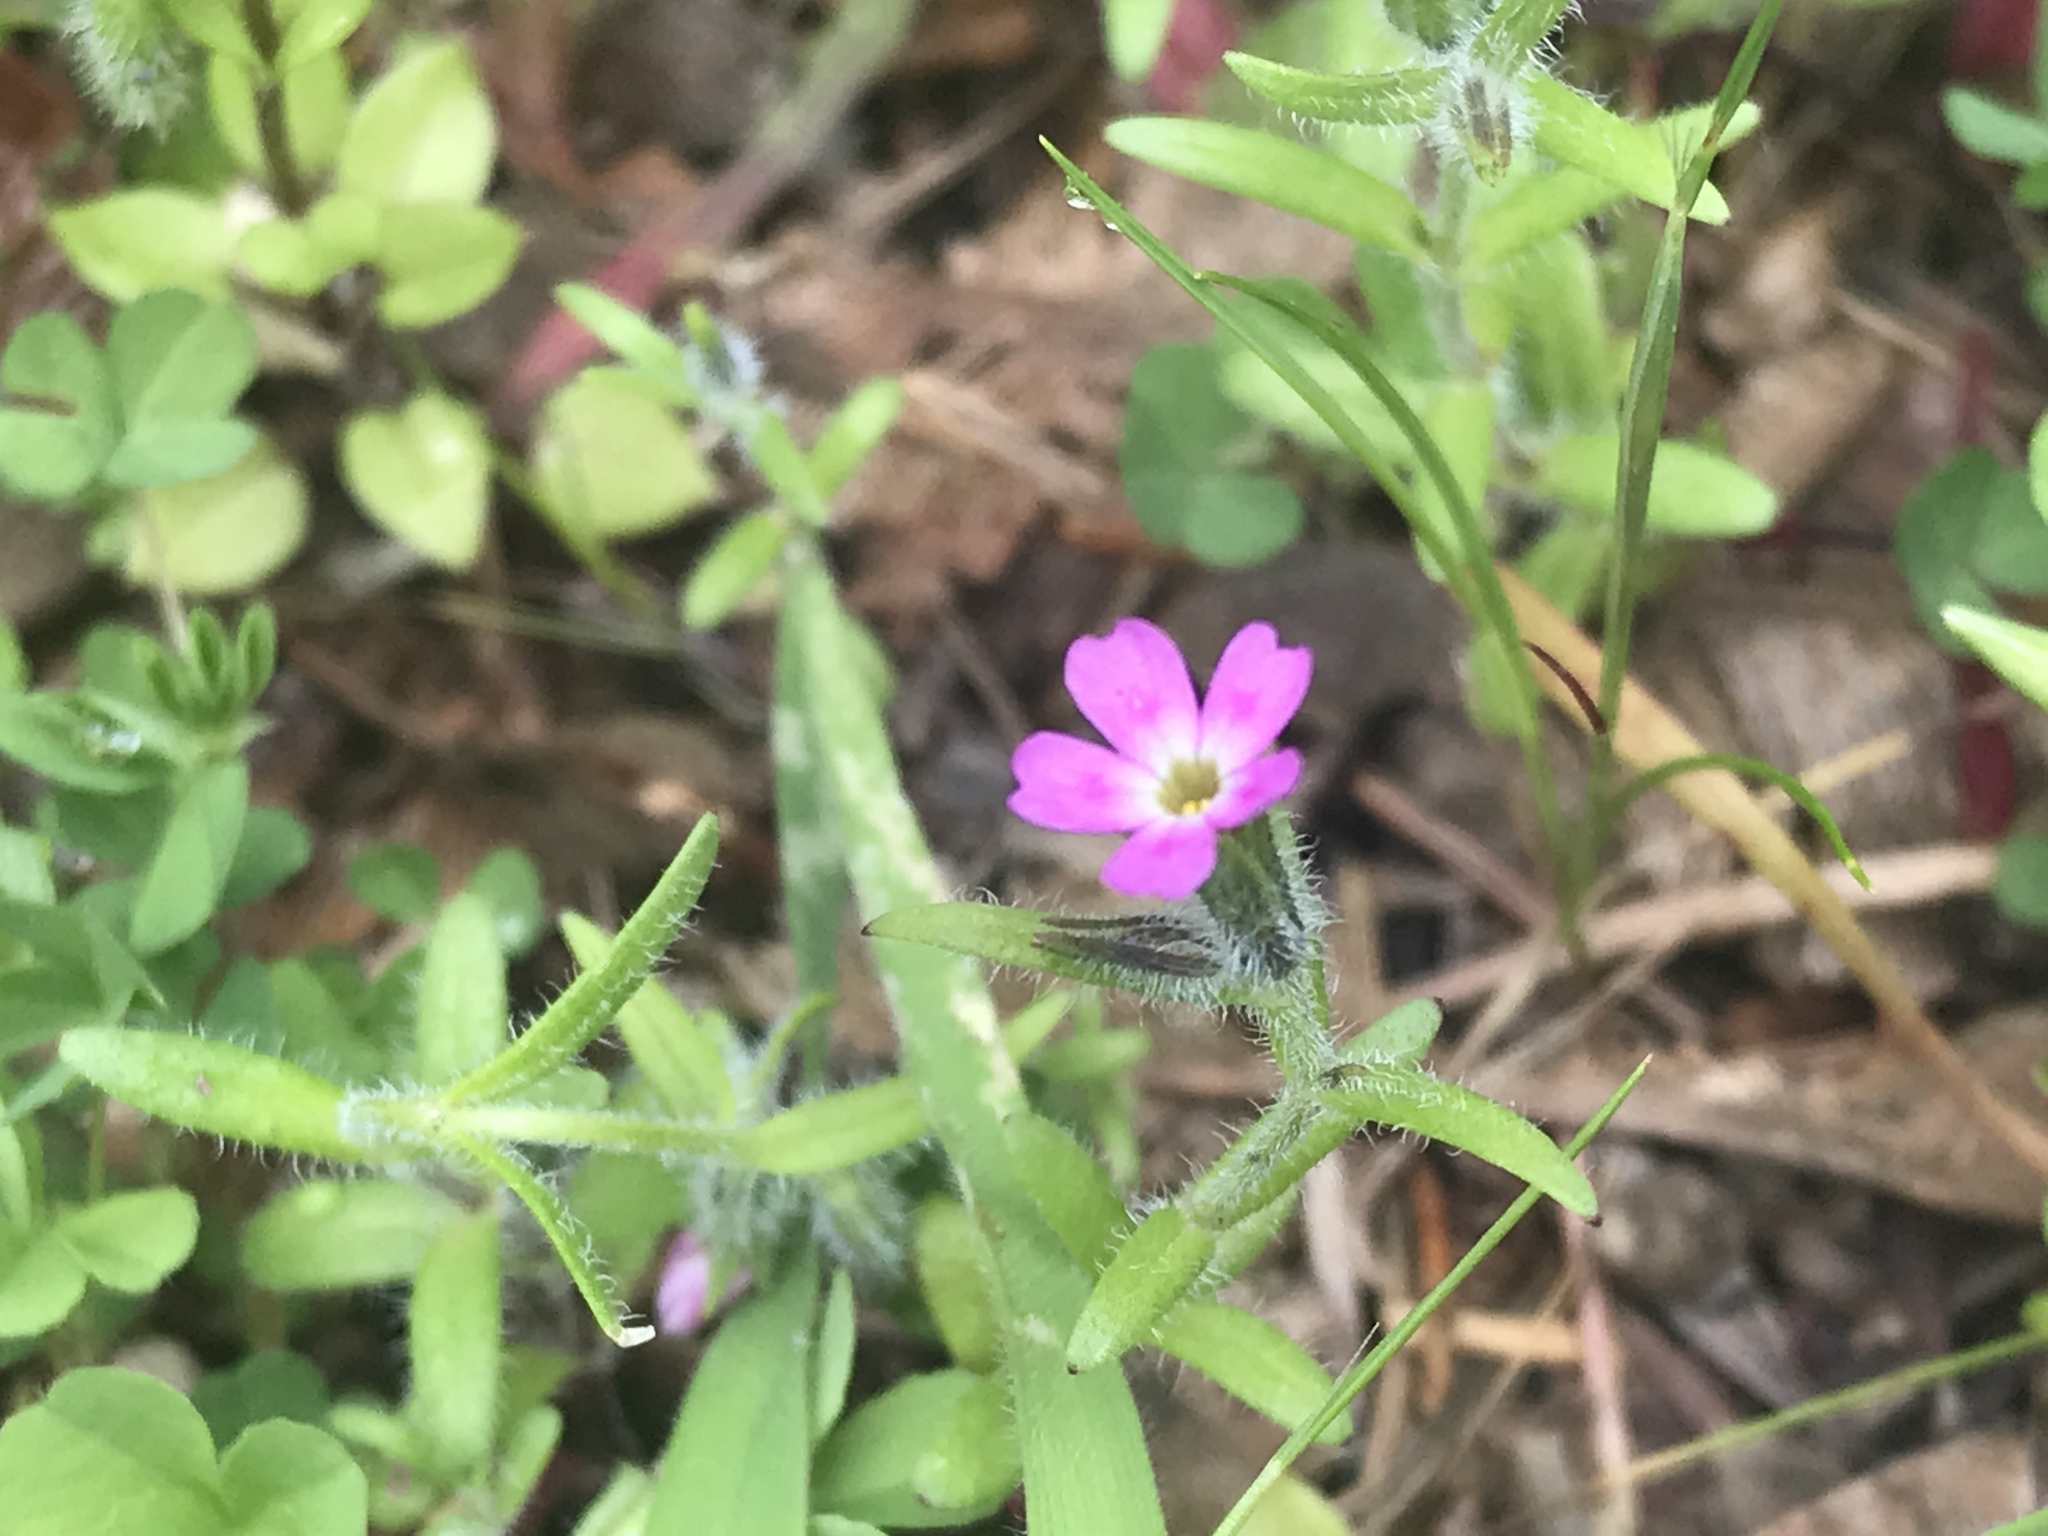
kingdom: Plantae
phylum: Tracheophyta
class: Magnoliopsida
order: Ericales
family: Polemoniaceae
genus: Phlox
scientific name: Phlox gracilis
